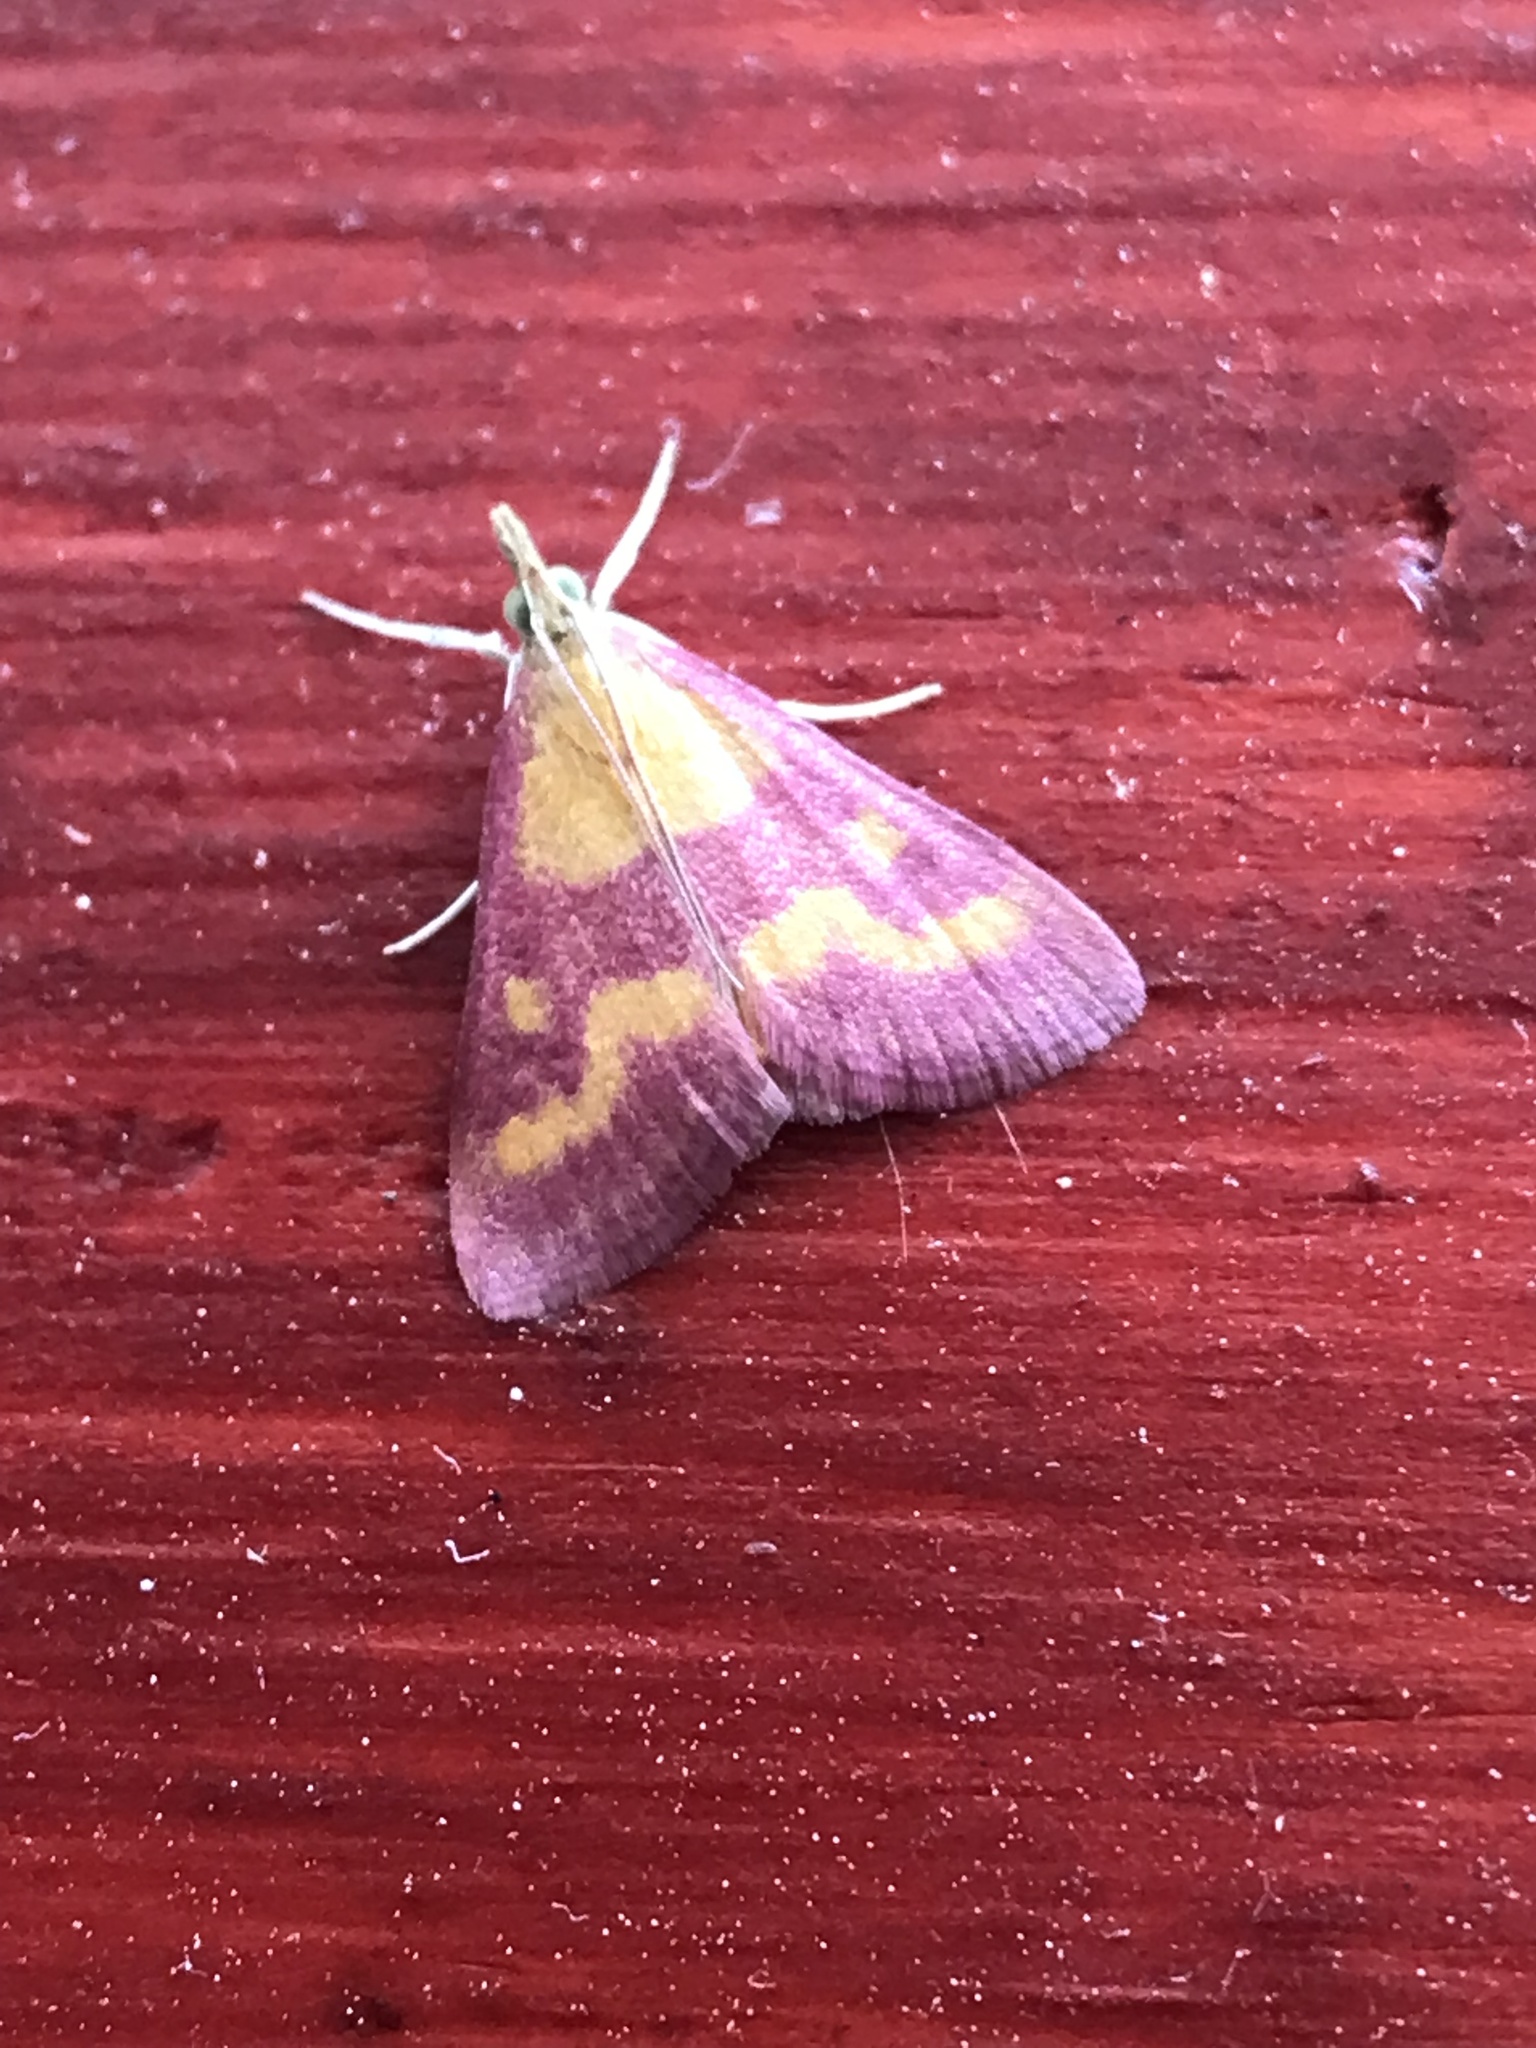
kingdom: Animalia
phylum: Arthropoda
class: Insecta
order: Lepidoptera
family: Crambidae
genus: Pyrausta
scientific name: Pyrausta laticlavia
